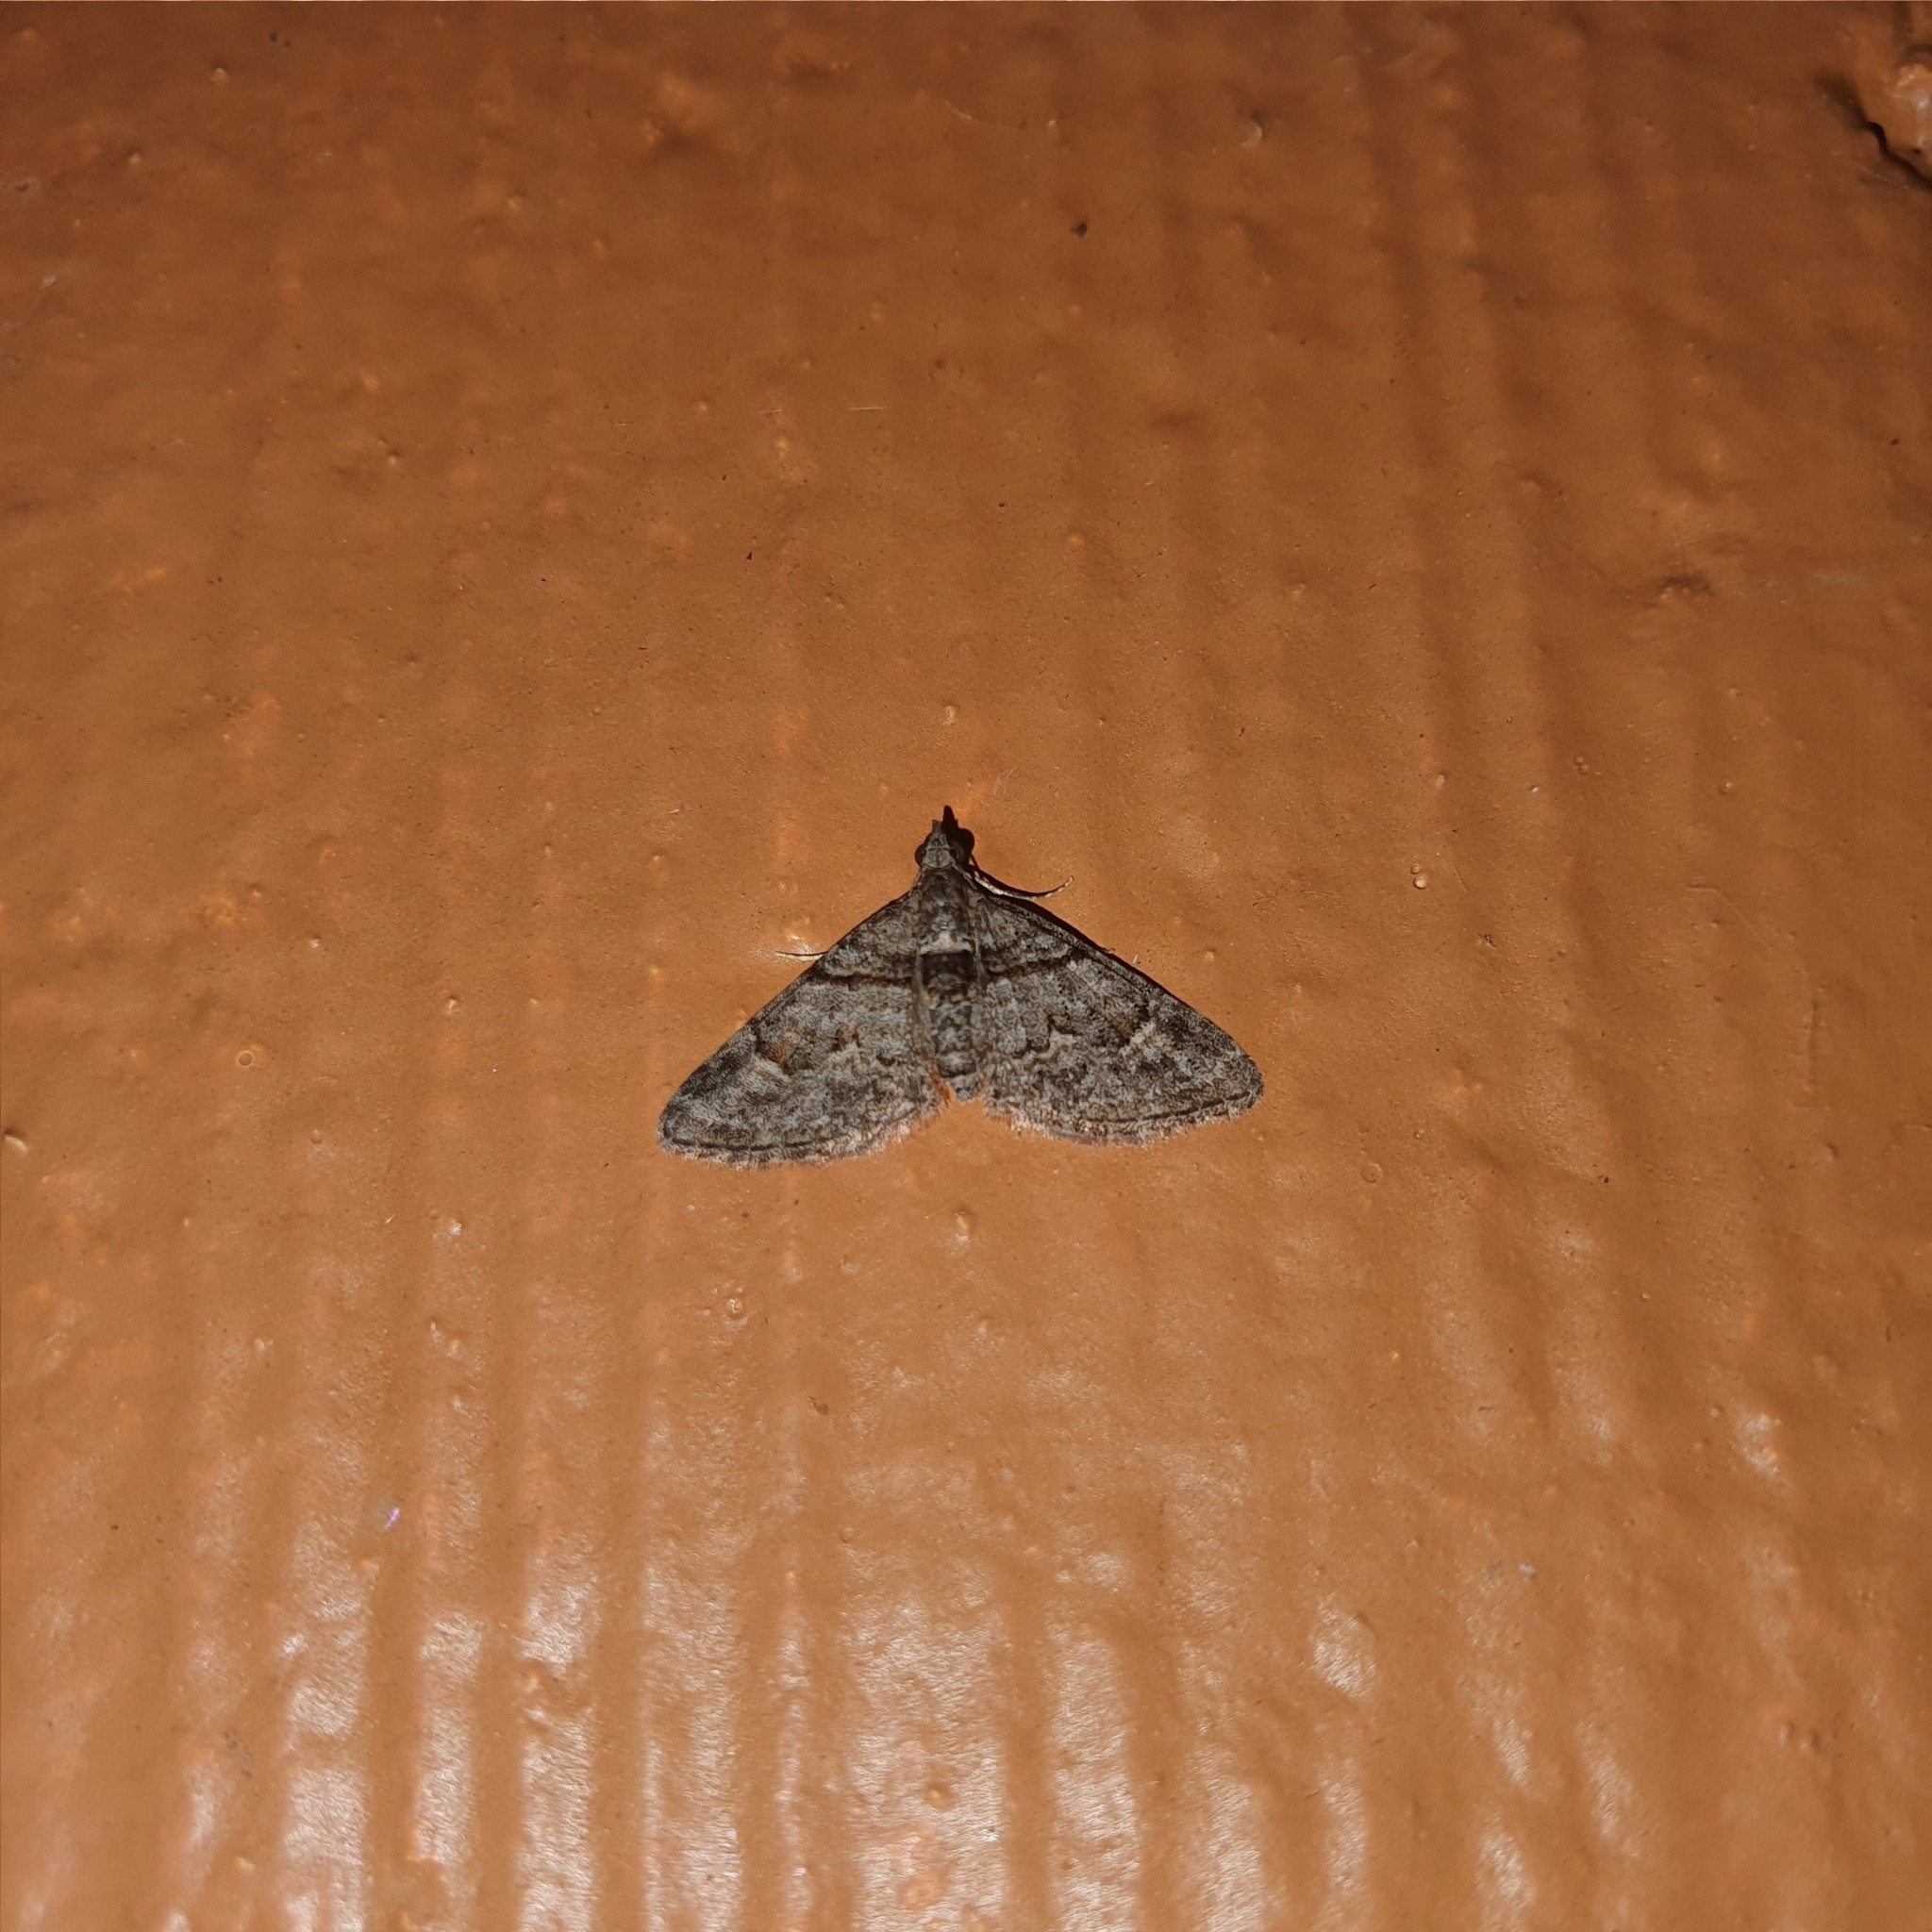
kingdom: Animalia
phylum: Arthropoda
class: Insecta
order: Lepidoptera
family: Geometridae
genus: Phrissogonus
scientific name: Phrissogonus laticostata
